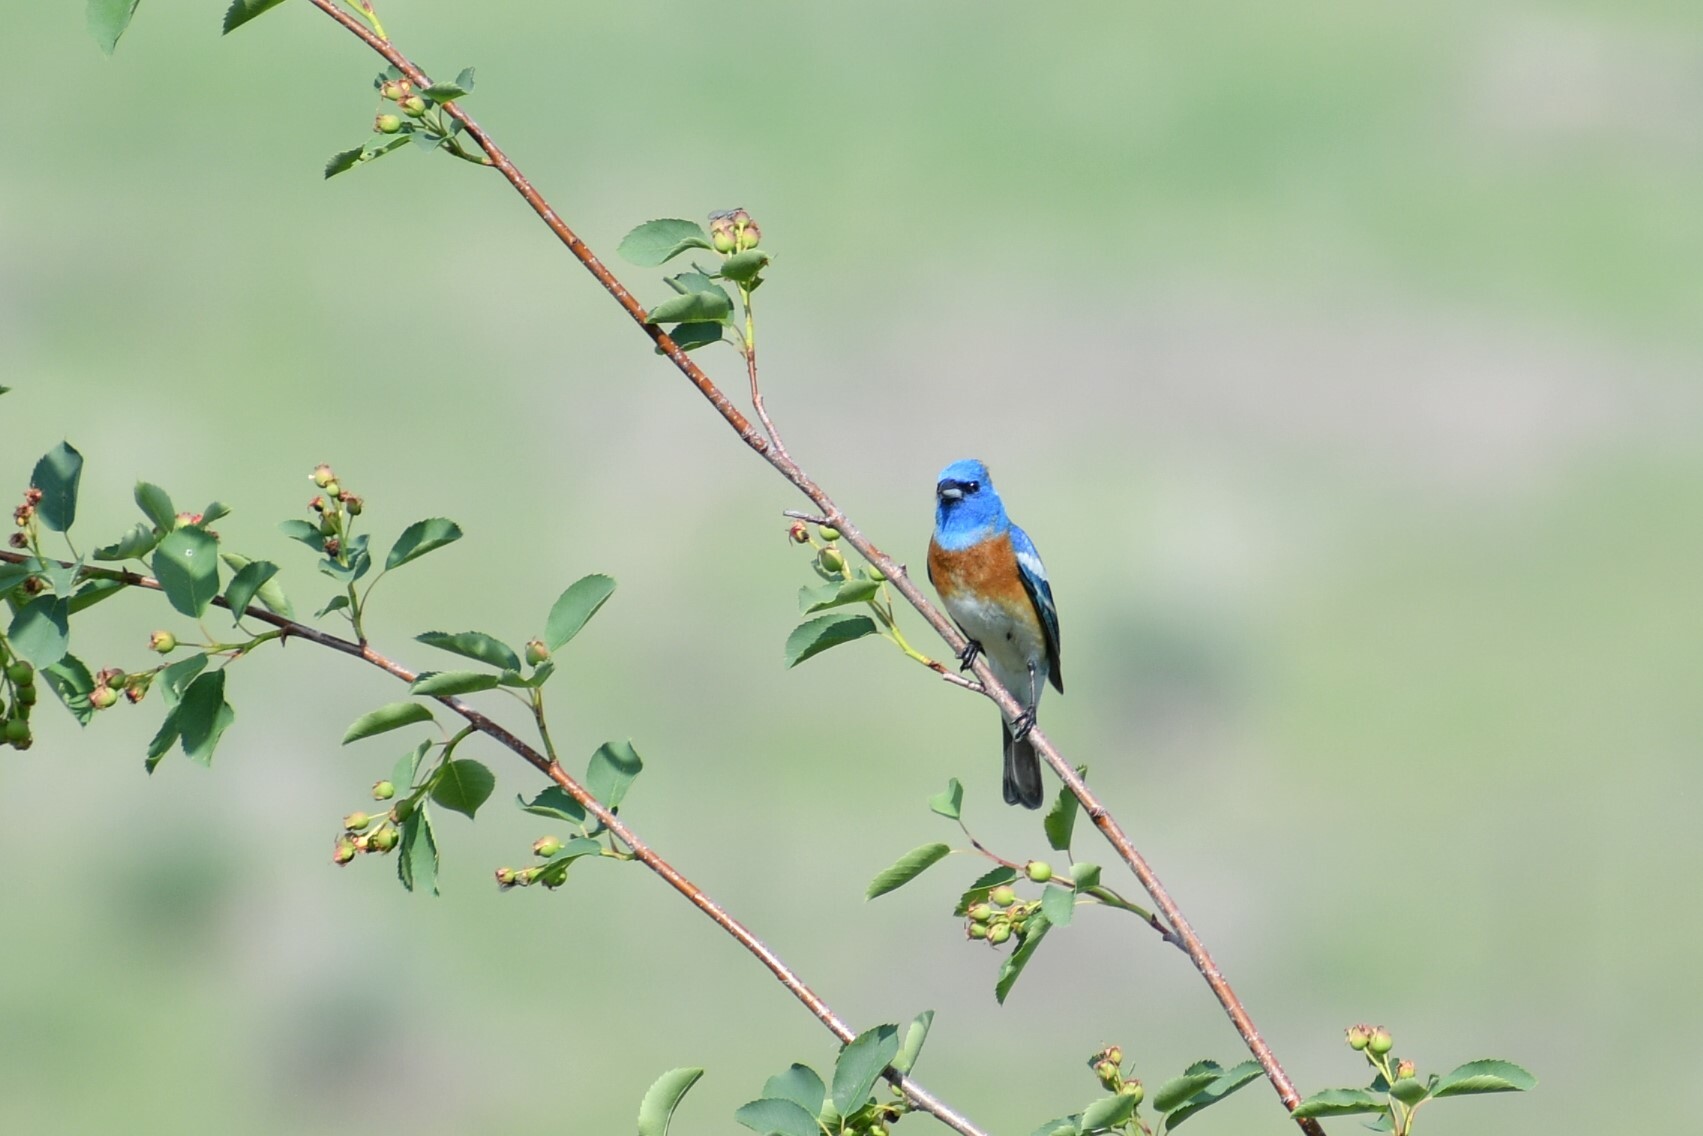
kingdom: Animalia
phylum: Chordata
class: Aves
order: Passeriformes
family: Cardinalidae
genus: Passerina
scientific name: Passerina amoena
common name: Lazuli bunting
